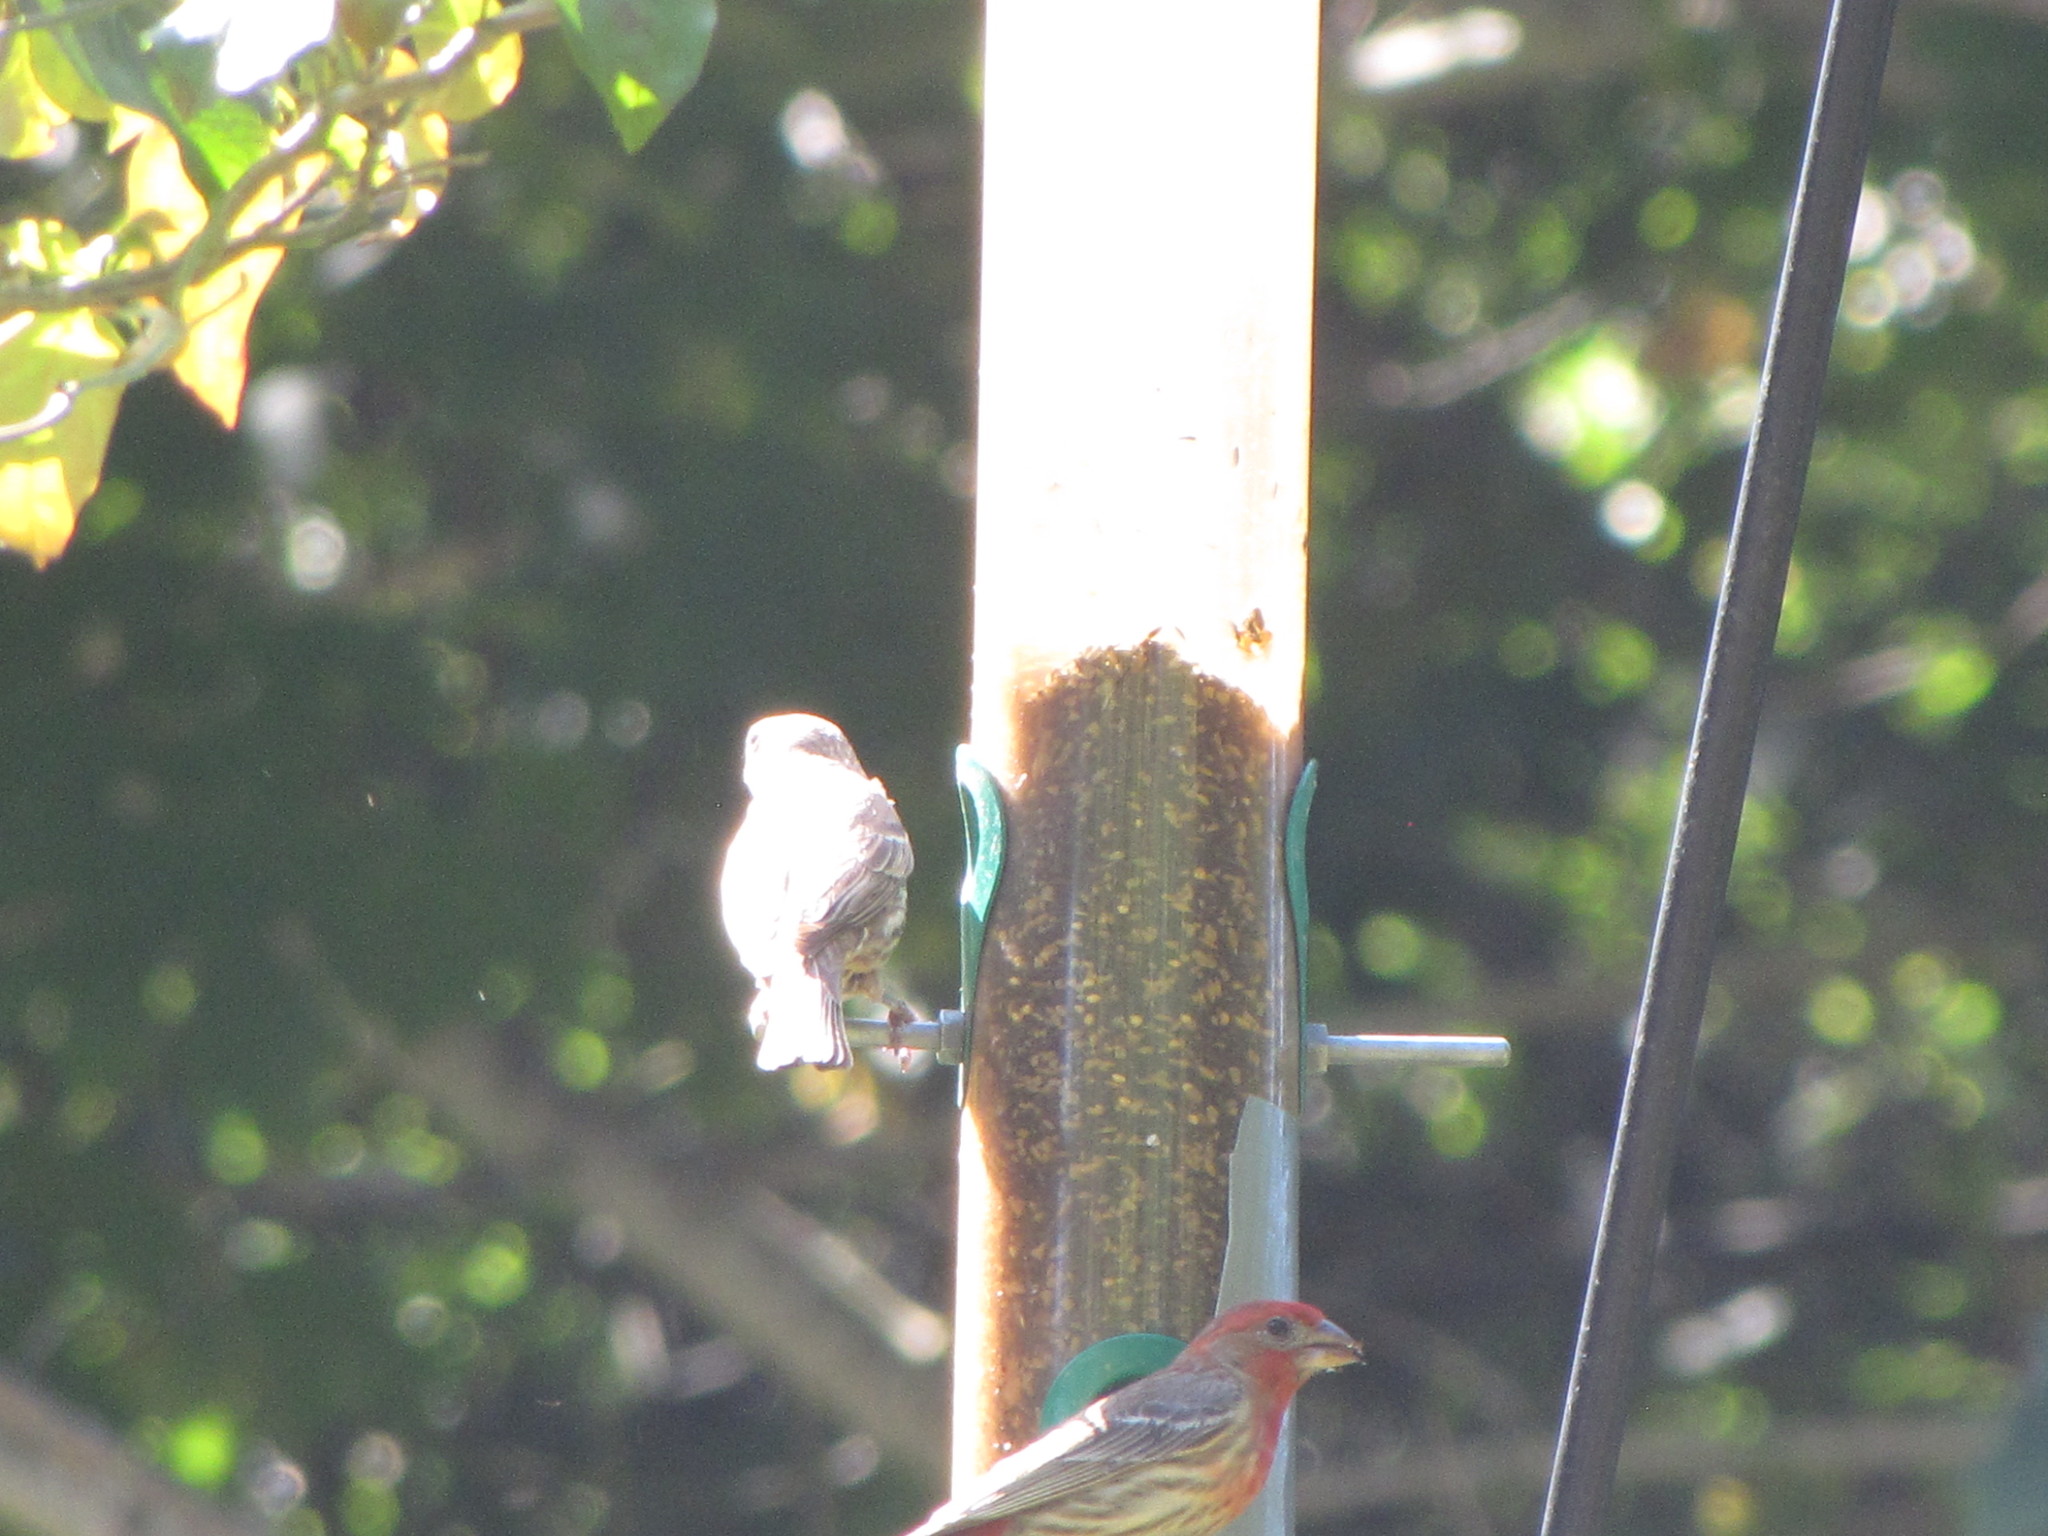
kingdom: Animalia
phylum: Chordata
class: Aves
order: Passeriformes
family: Fringillidae
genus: Haemorhous
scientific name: Haemorhous mexicanus
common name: House finch
